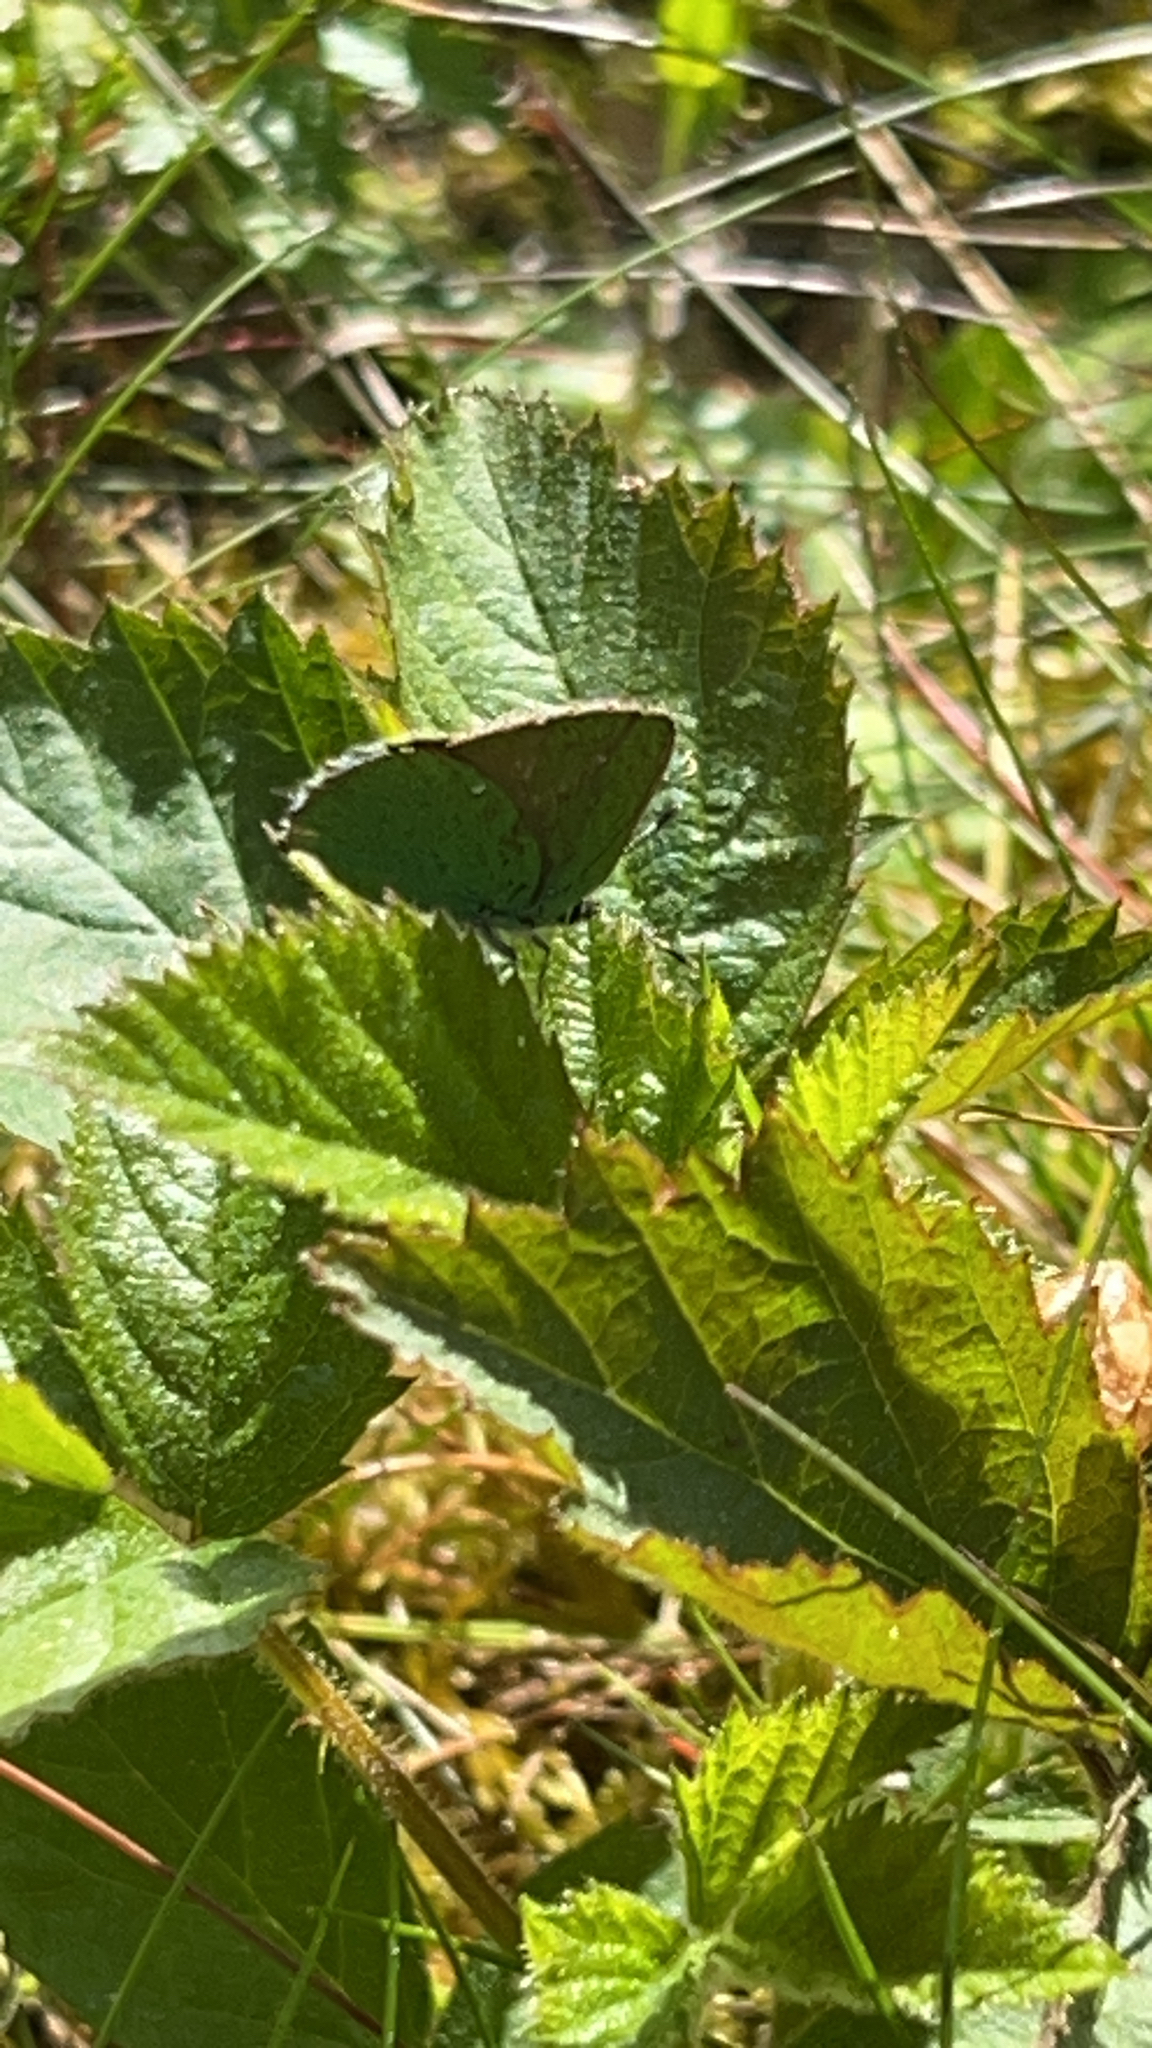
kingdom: Animalia
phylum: Arthropoda
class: Insecta
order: Lepidoptera
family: Lycaenidae
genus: Callophrys
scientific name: Callophrys rubi
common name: Green hairstreak
